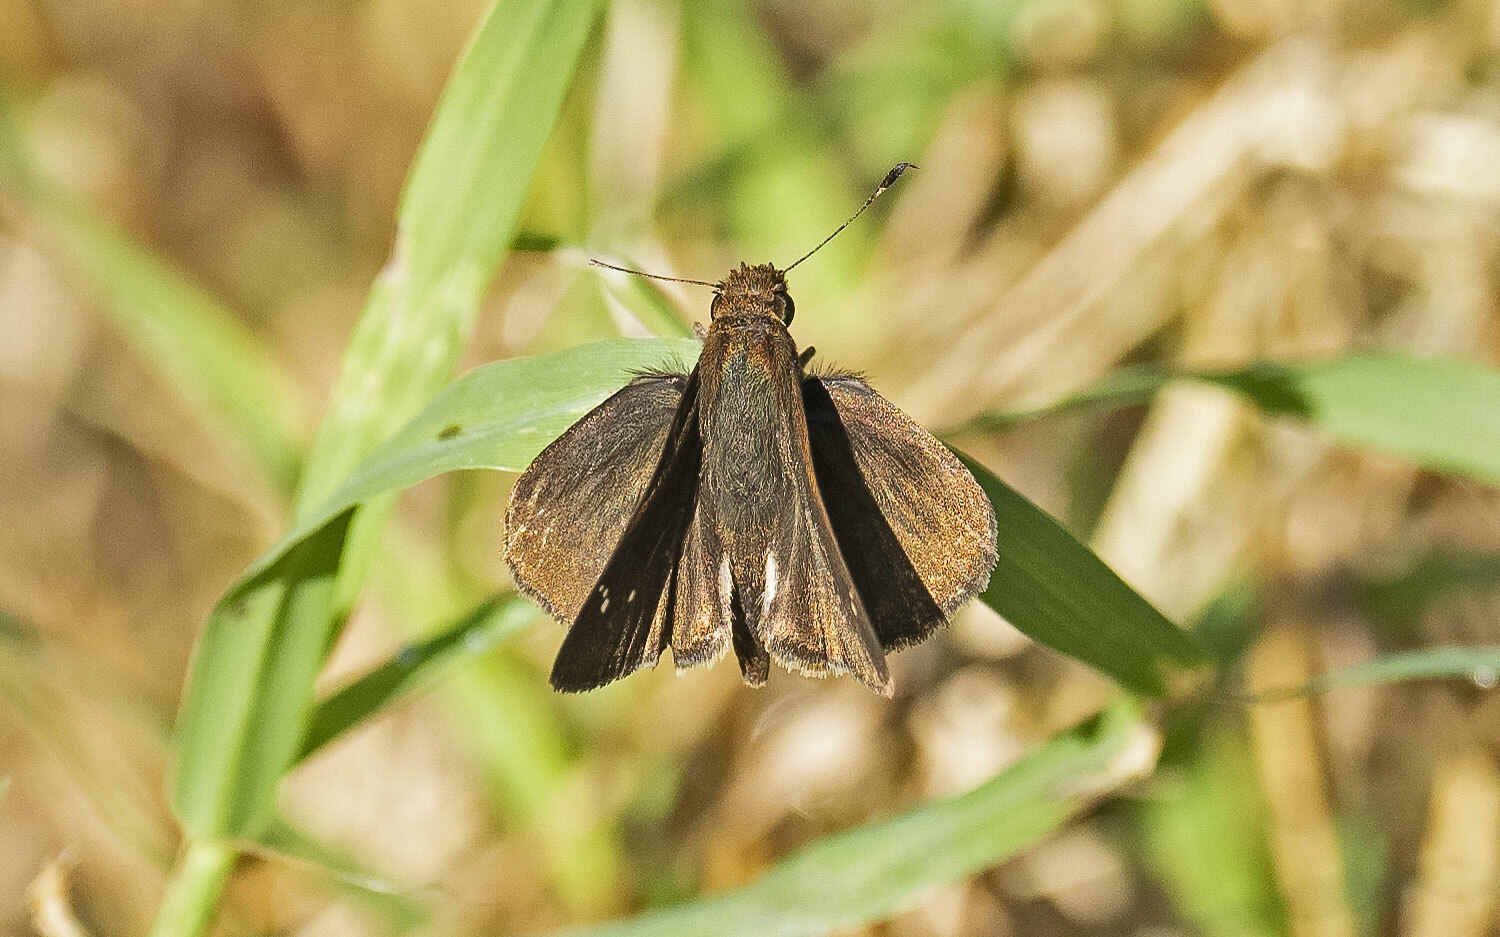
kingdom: Animalia
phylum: Arthropoda
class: Insecta
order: Lepidoptera
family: Hesperiidae
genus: Lerema
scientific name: Lerema accius
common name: Clouded skipper
